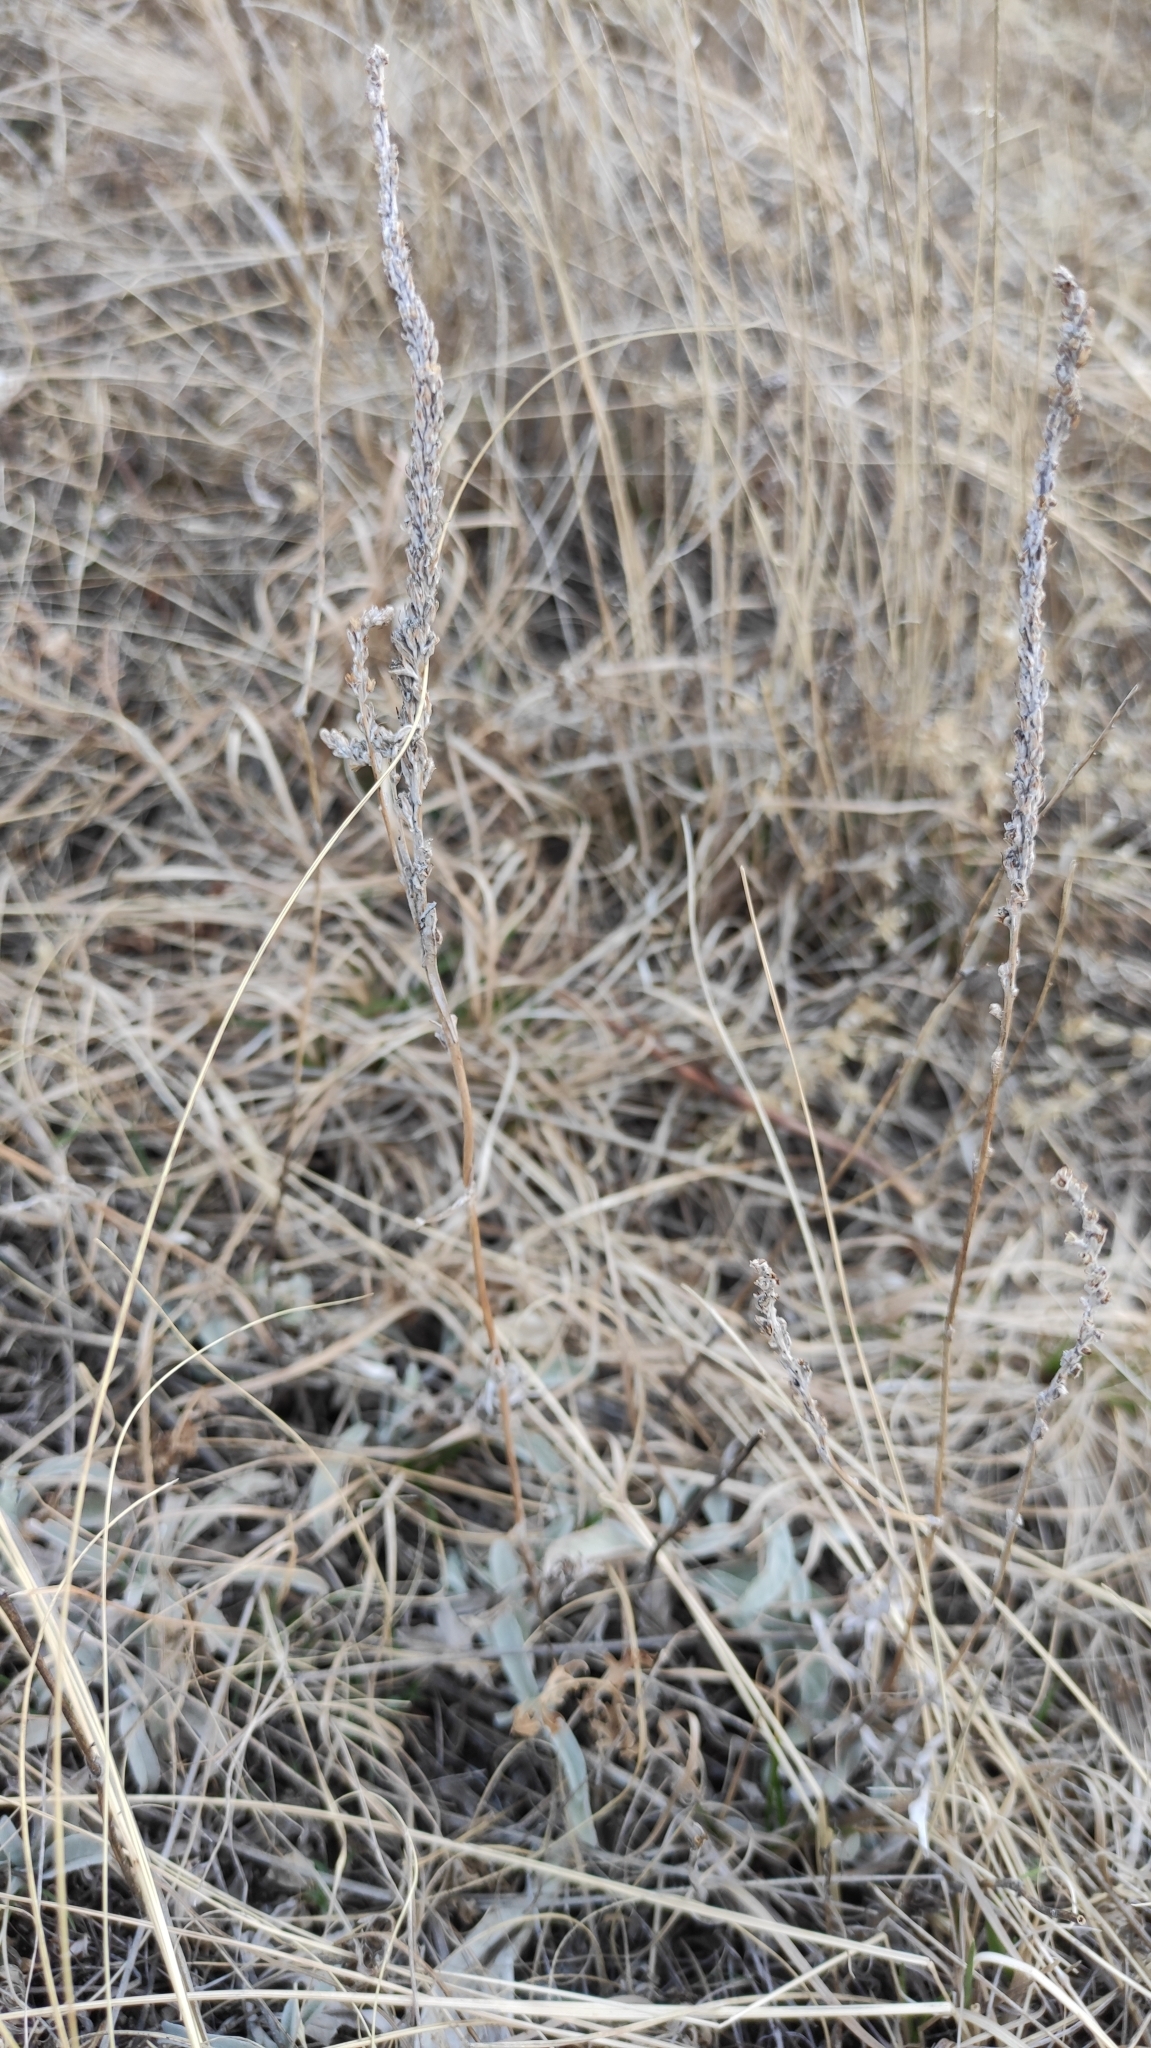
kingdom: Plantae
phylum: Tracheophyta
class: Magnoliopsida
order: Lamiales
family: Plantaginaceae
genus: Veronica
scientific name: Veronica incana
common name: Silver speedwell
